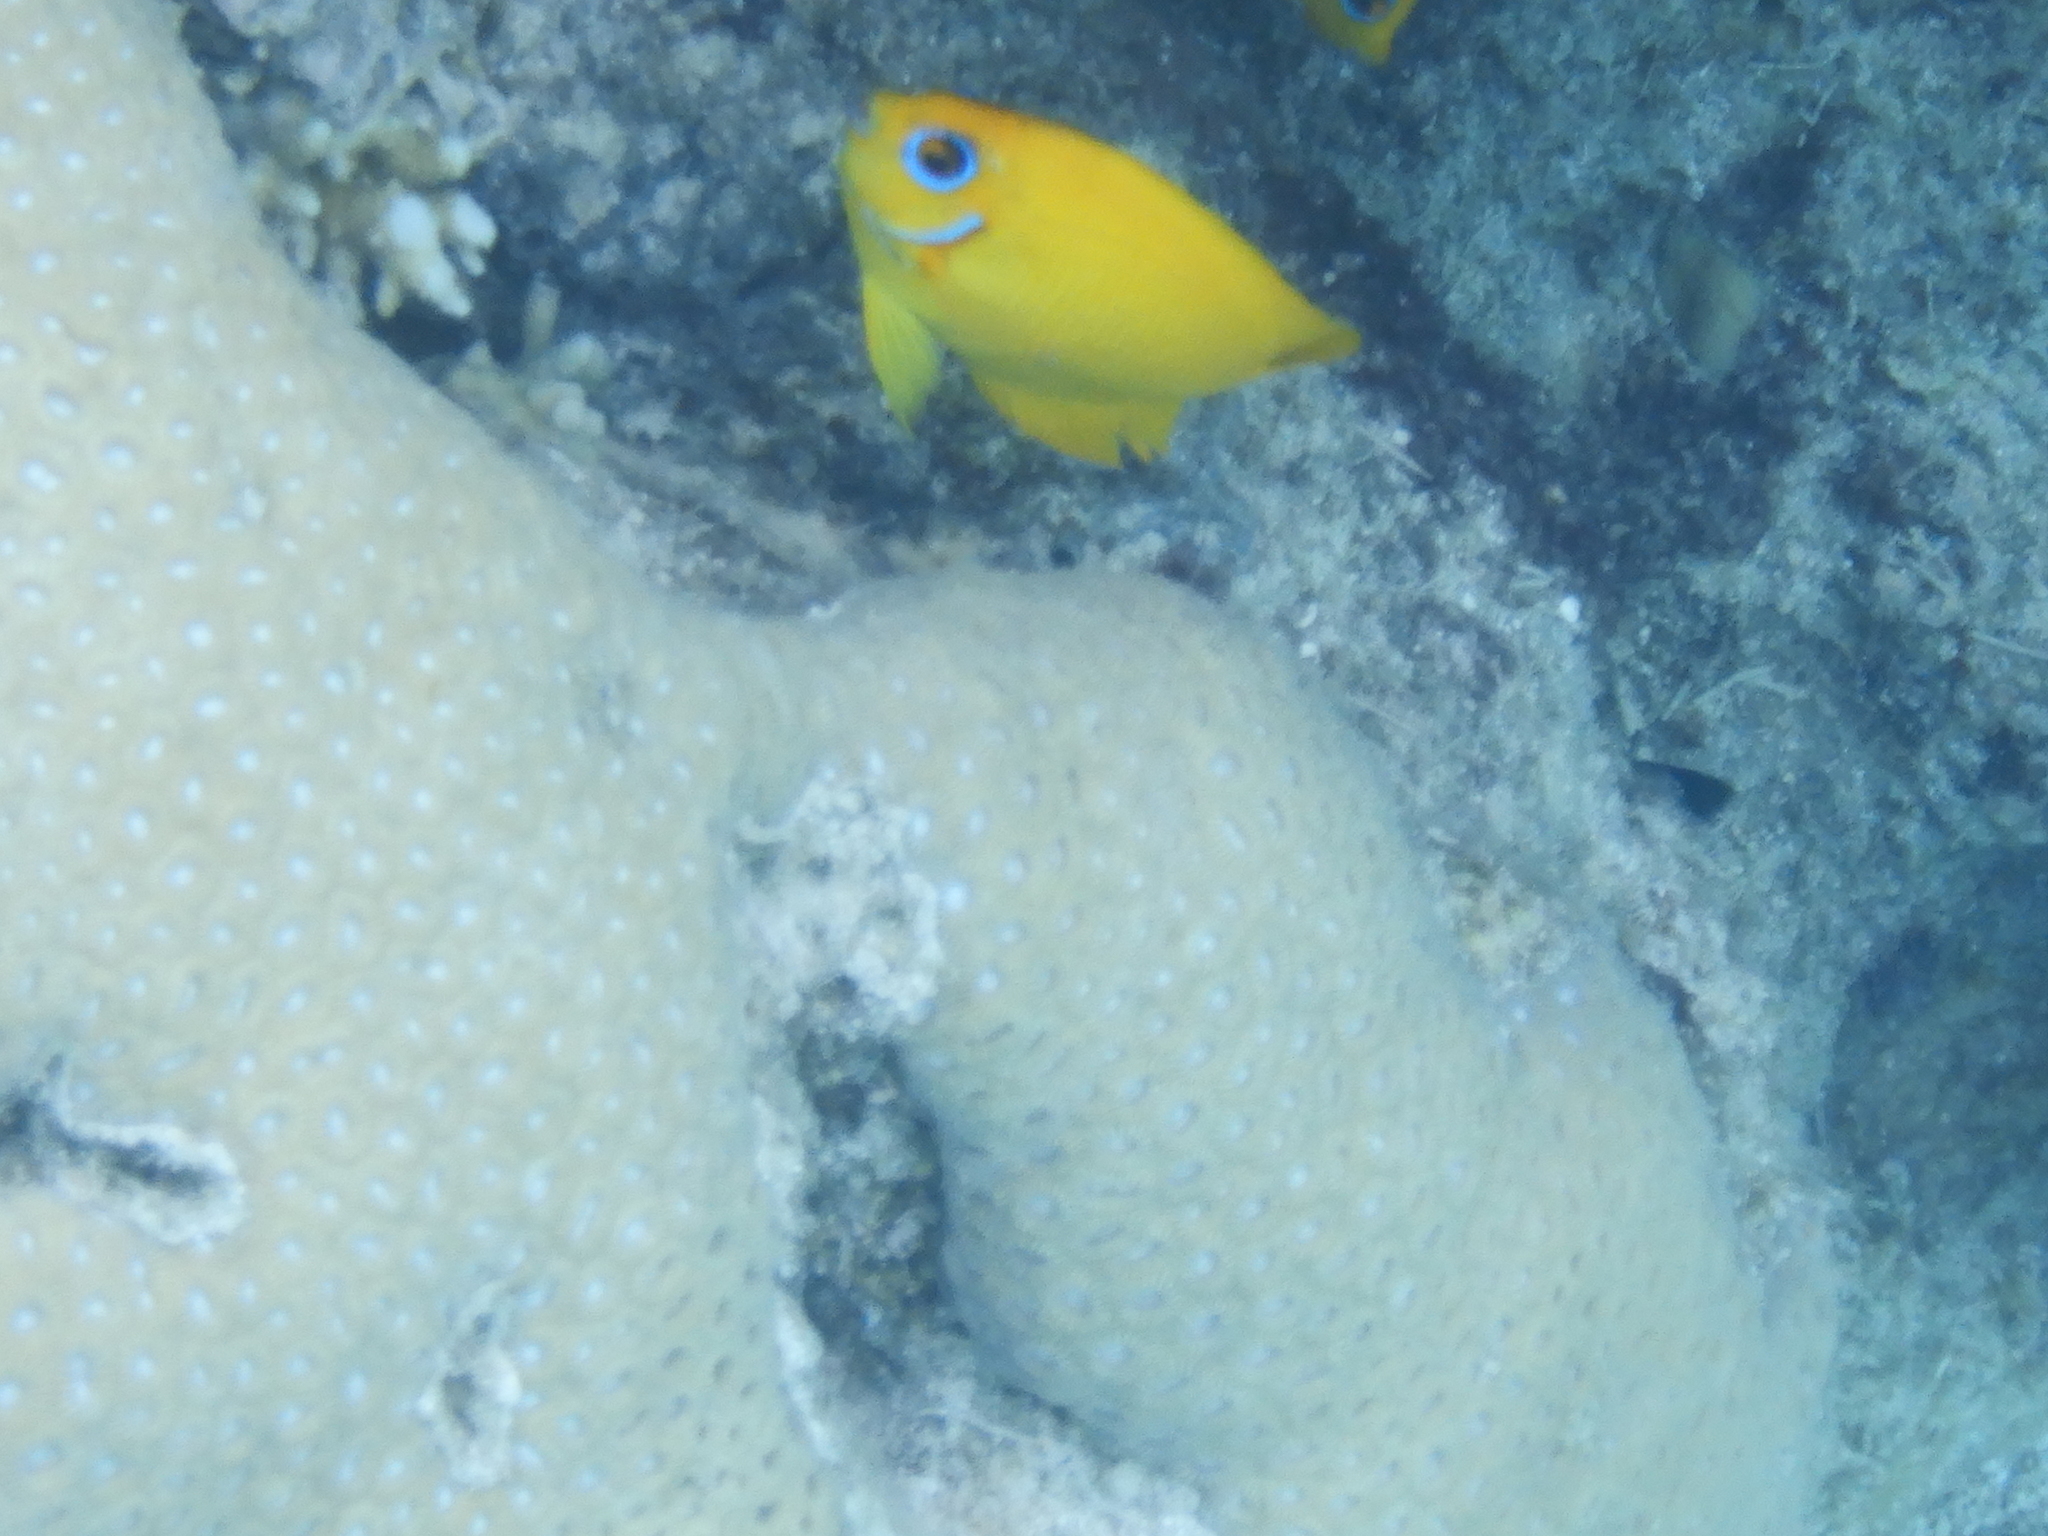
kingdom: Animalia
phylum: Chordata
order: Perciformes
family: Pomacanthidae
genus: Centropyge
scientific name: Centropyge flavissima
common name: Lemonpeel angelfish
